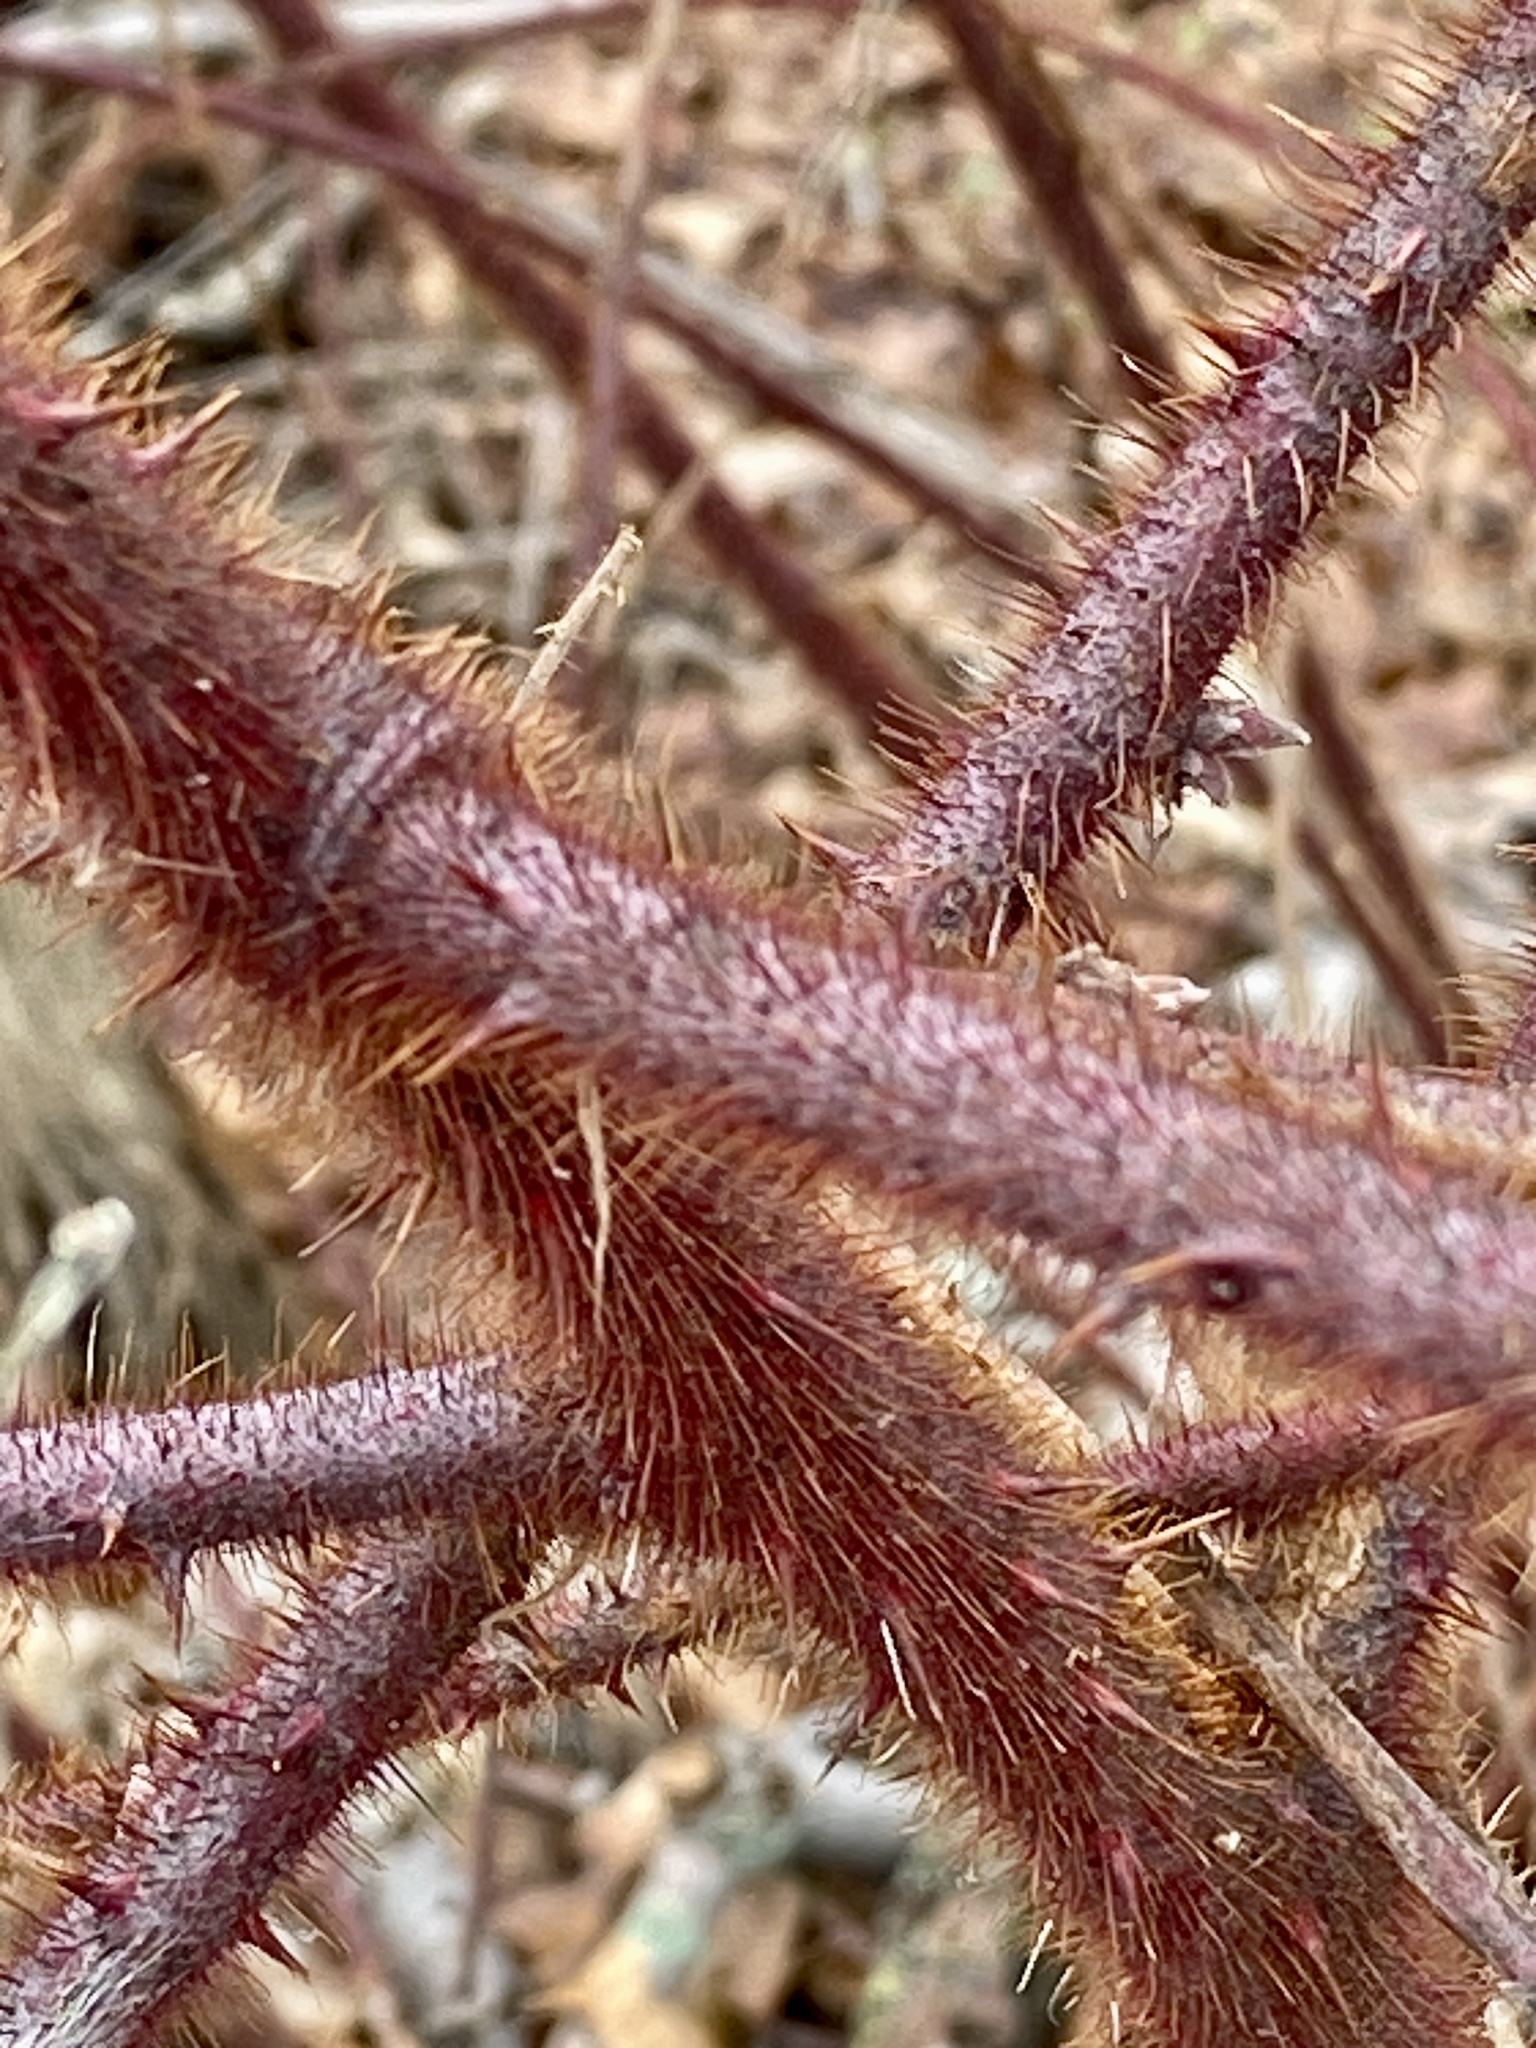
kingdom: Plantae
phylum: Tracheophyta
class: Magnoliopsida
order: Rosales
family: Rosaceae
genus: Rubus
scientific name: Rubus phoenicolasius
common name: Japanese wineberry
